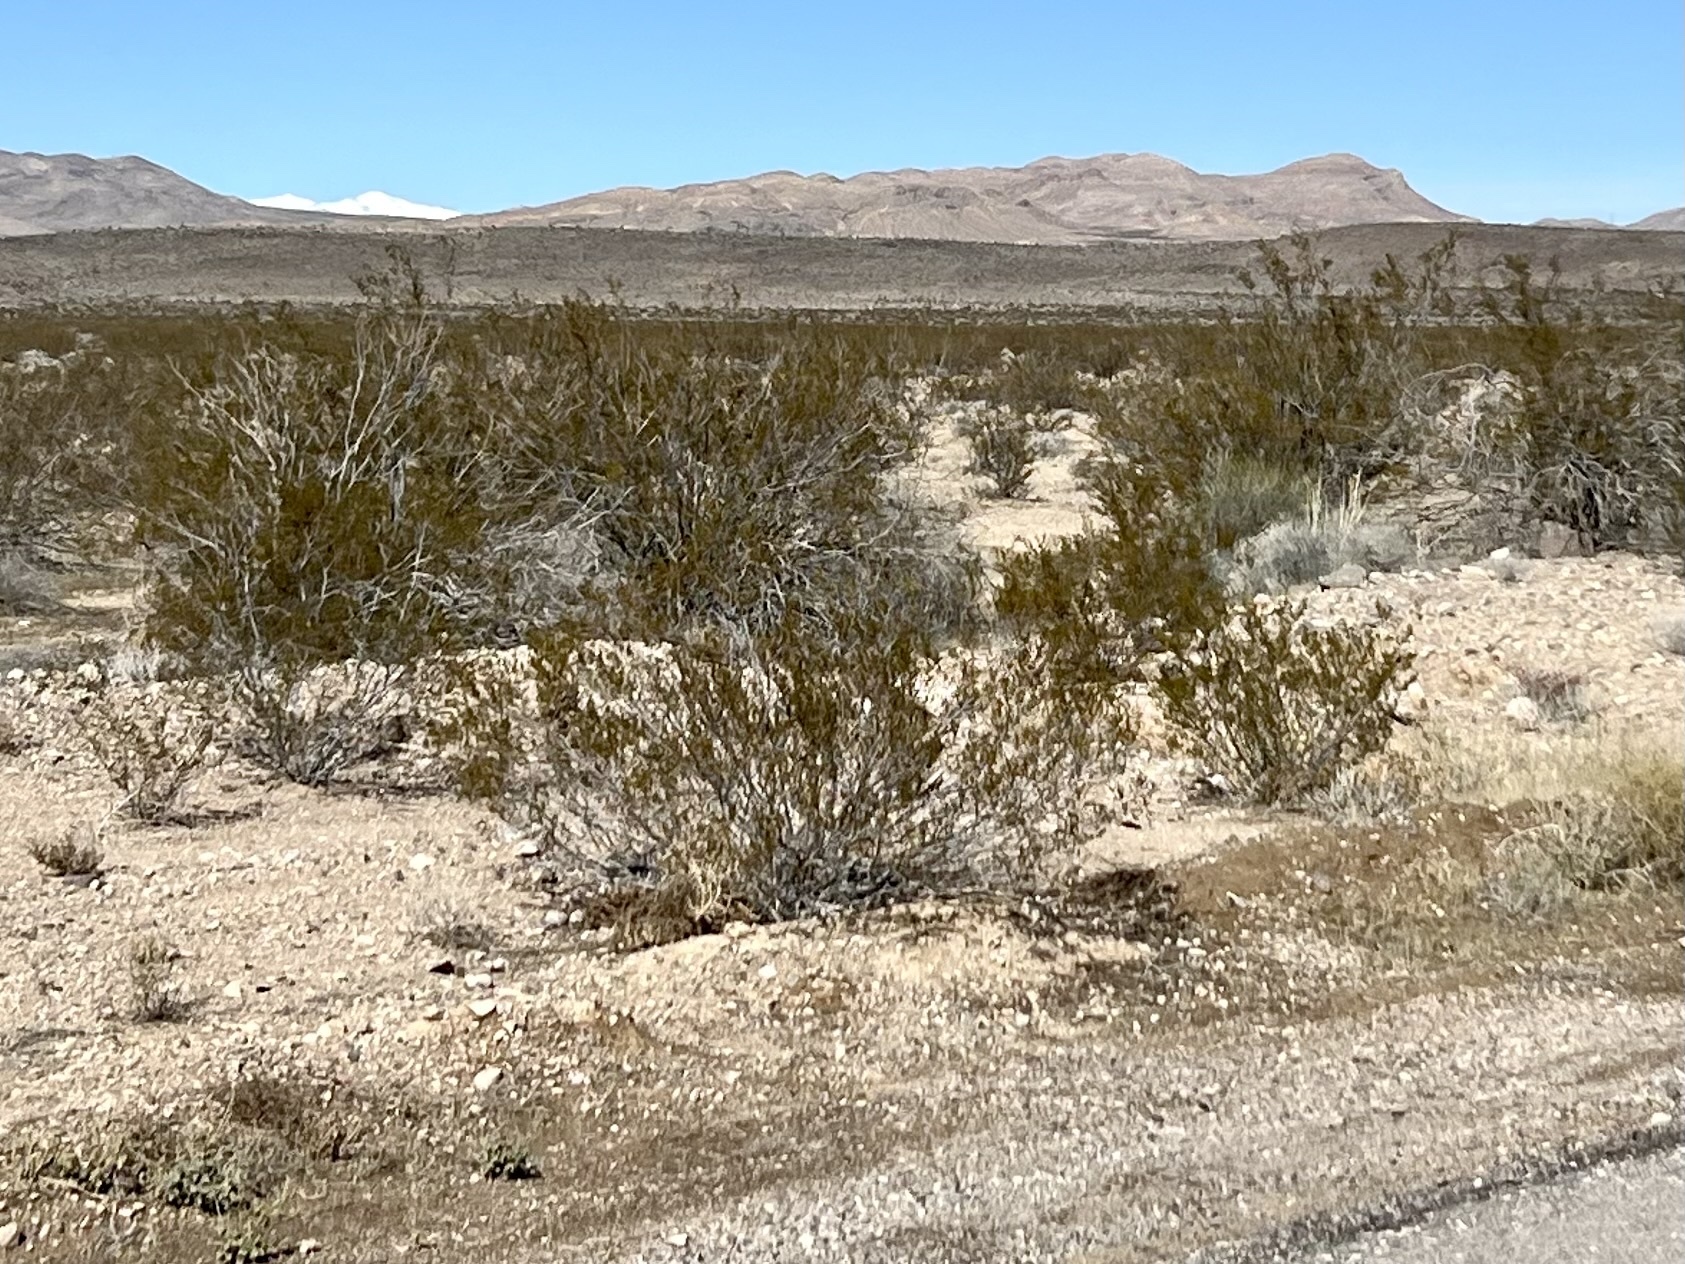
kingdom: Plantae
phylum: Tracheophyta
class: Magnoliopsida
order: Zygophyllales
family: Zygophyllaceae
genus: Larrea
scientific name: Larrea tridentata
